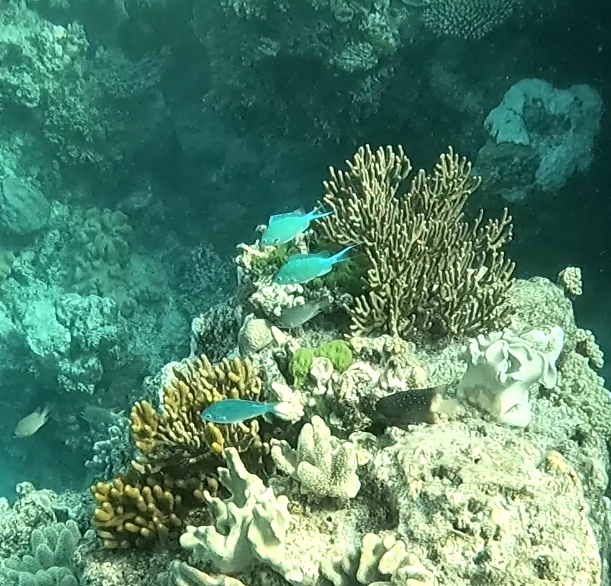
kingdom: Animalia
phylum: Chordata
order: Perciformes
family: Pomacentridae
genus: Chromis
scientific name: Chromis atripectoralis
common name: Black-axil chromis
